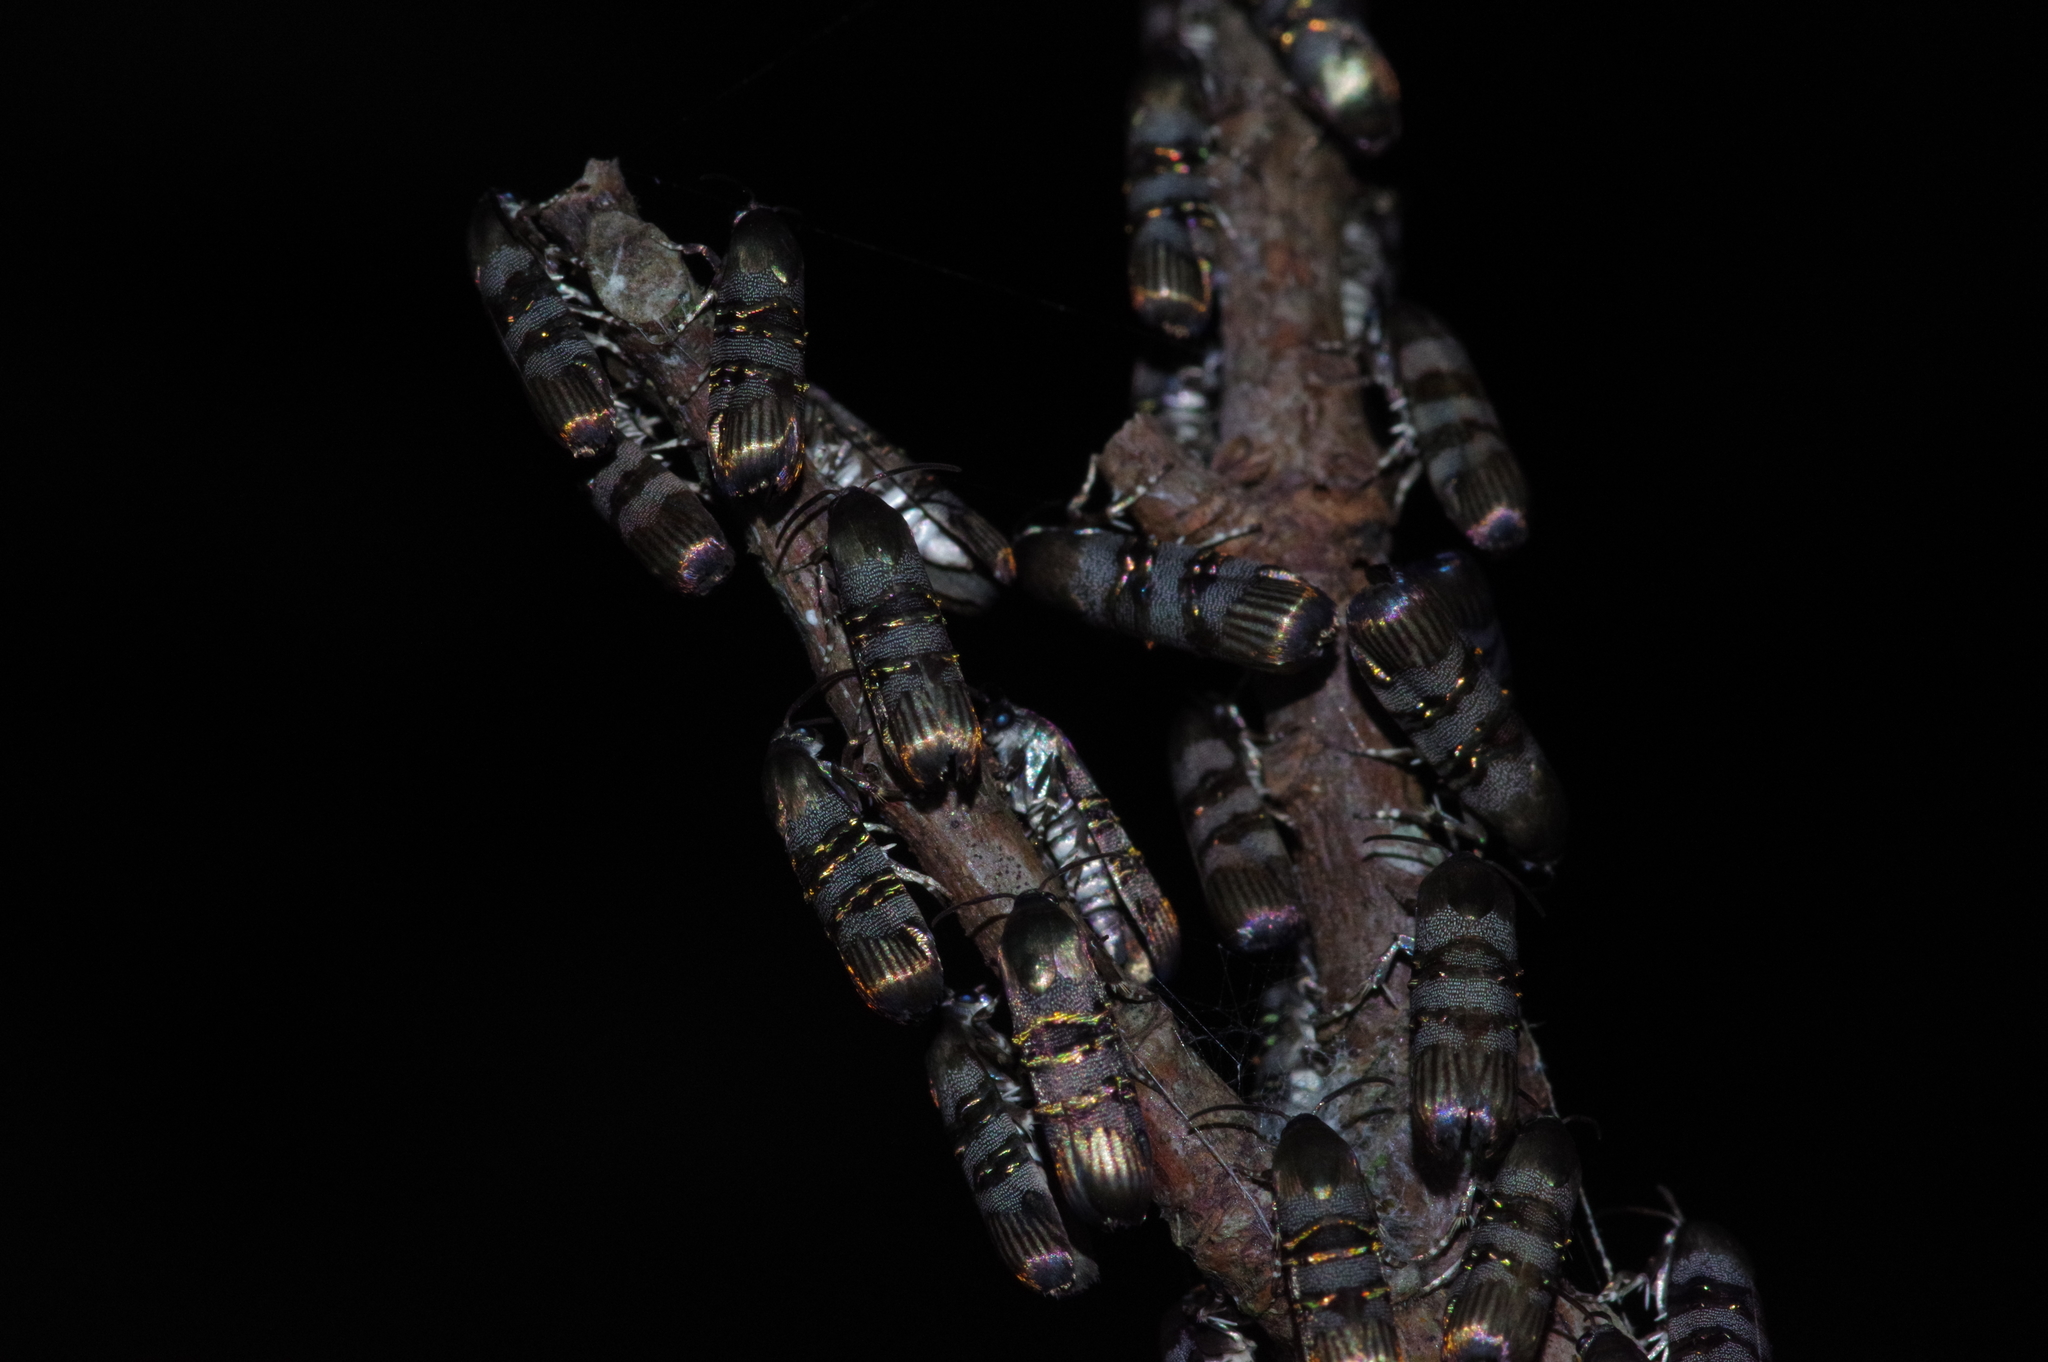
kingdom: Animalia
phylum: Arthropoda
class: Insecta
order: Lepidoptera
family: Brachodidae
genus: Phycodes
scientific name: Phycodes limata
